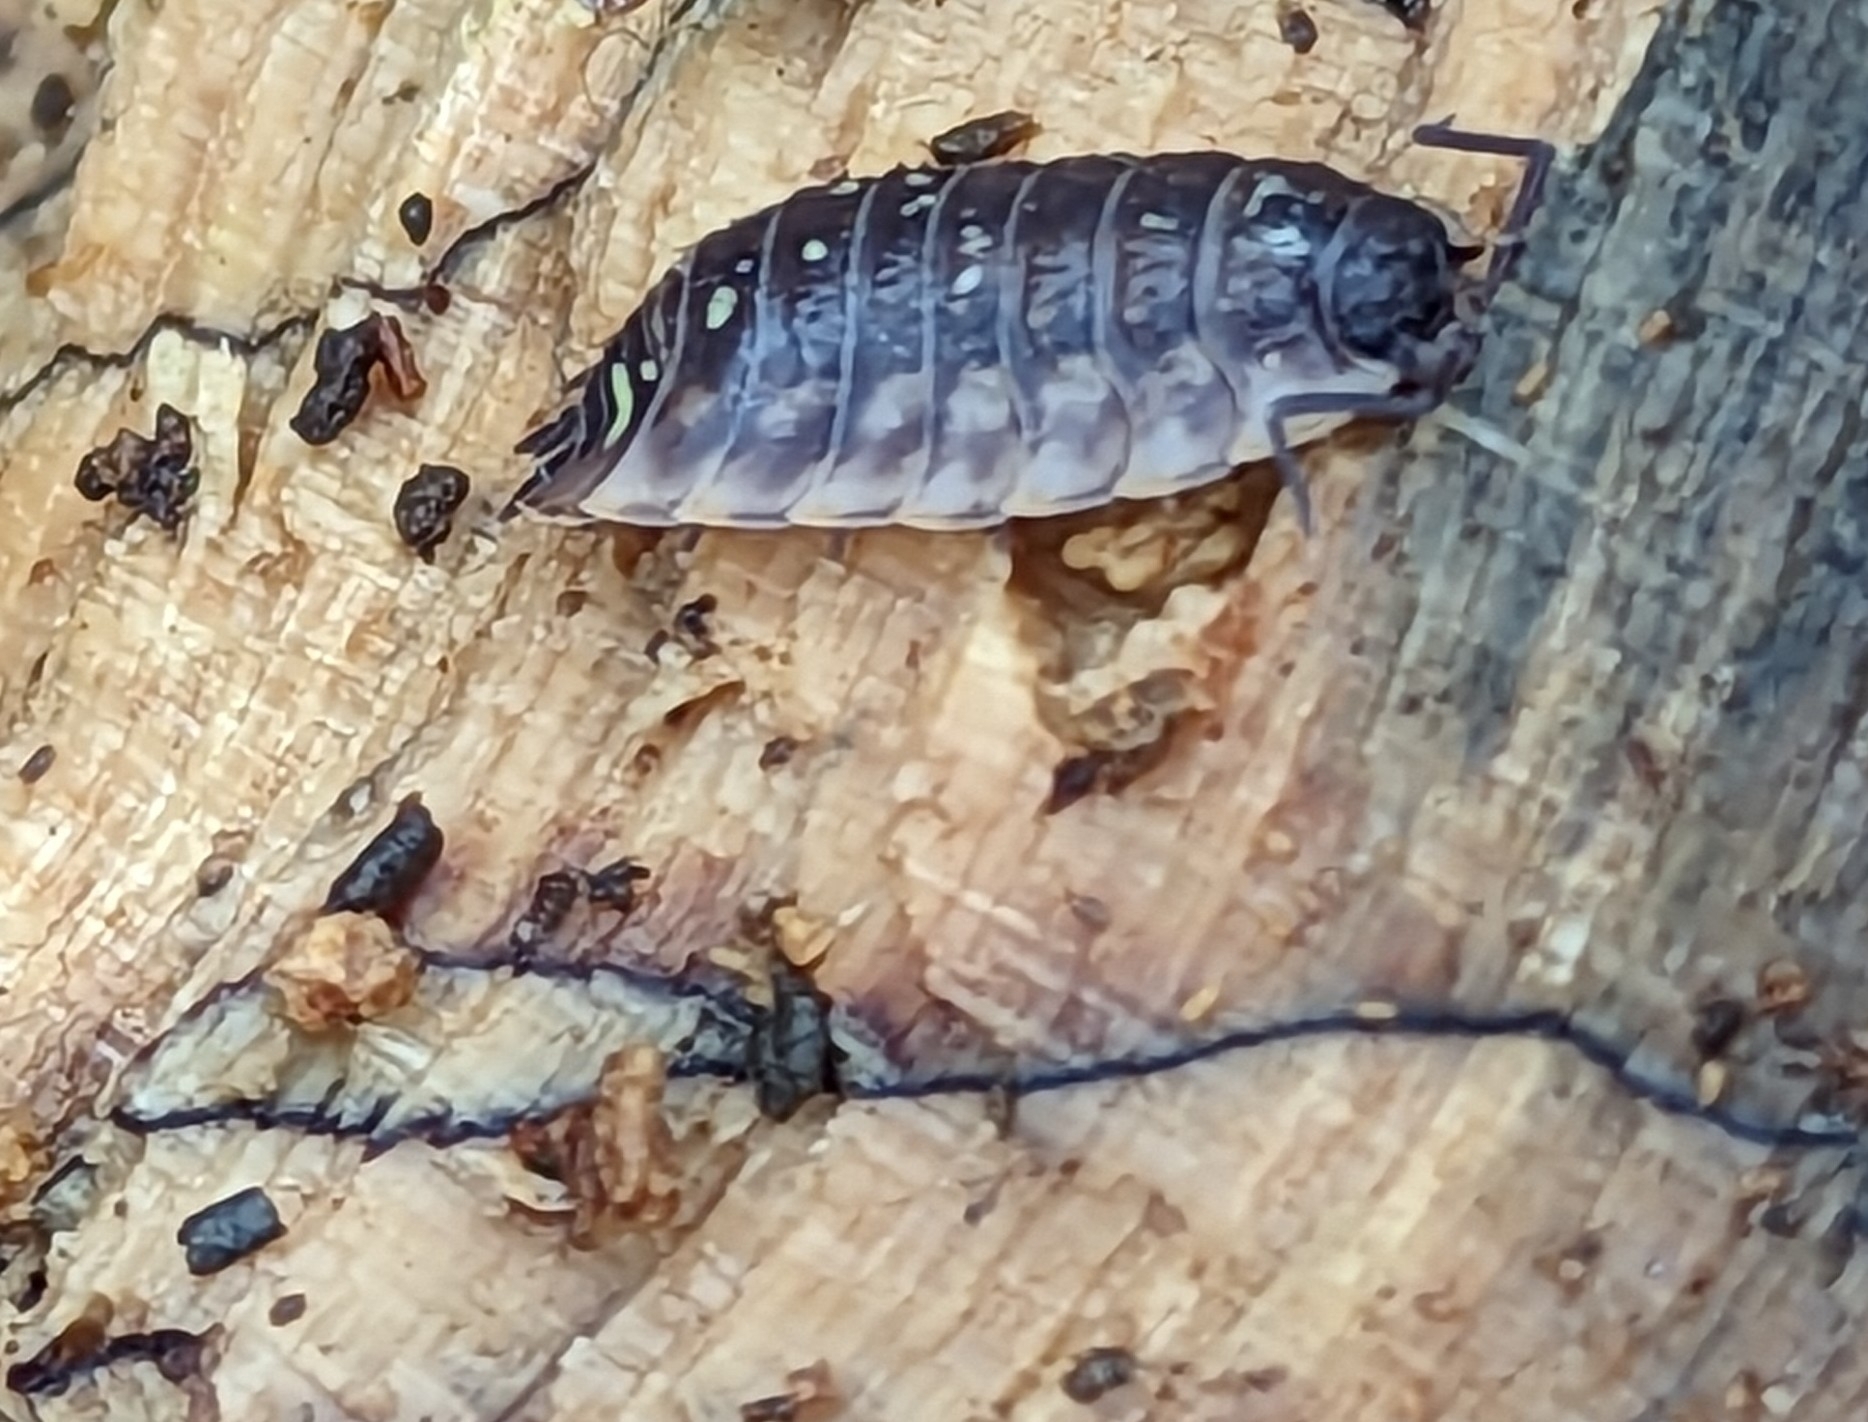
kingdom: Animalia
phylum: Arthropoda
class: Malacostraca
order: Isopoda
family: Oniscidae
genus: Oniscus
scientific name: Oniscus asellus
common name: Common shiny woodlouse
